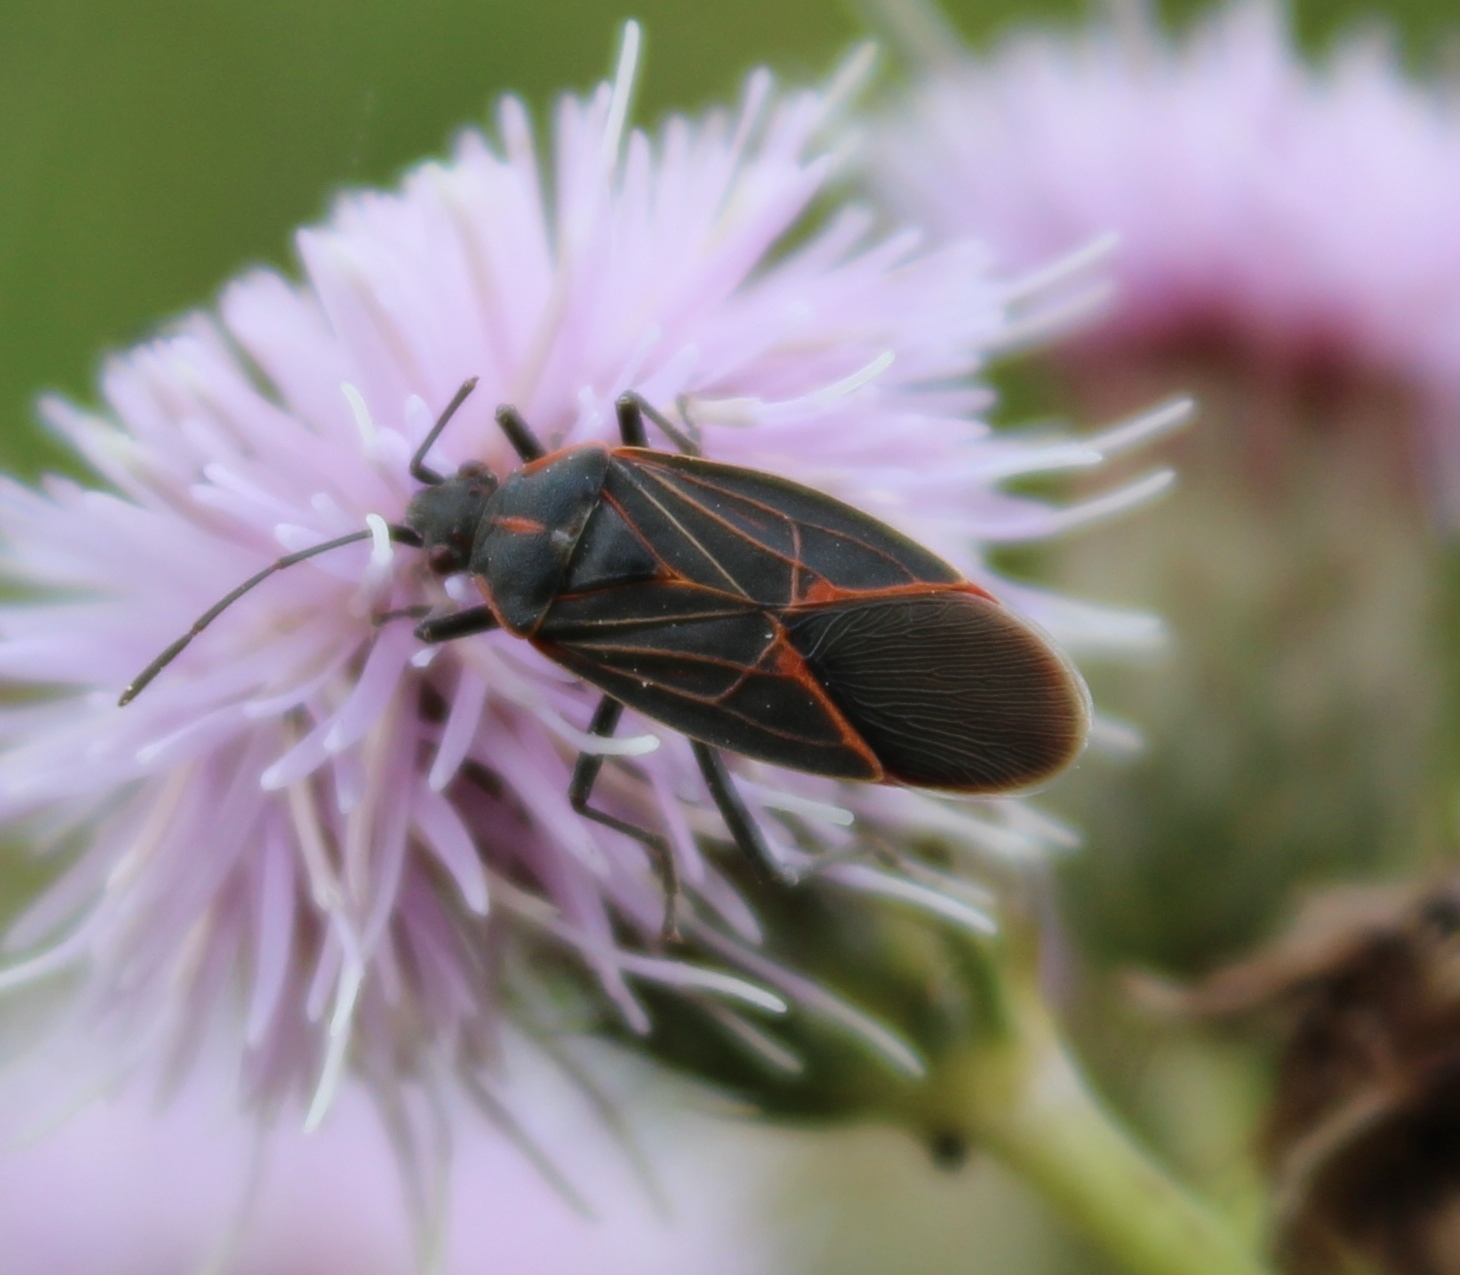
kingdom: Animalia
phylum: Arthropoda
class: Insecta
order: Hemiptera
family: Rhopalidae
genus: Boisea
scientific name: Boisea rubrolineata
